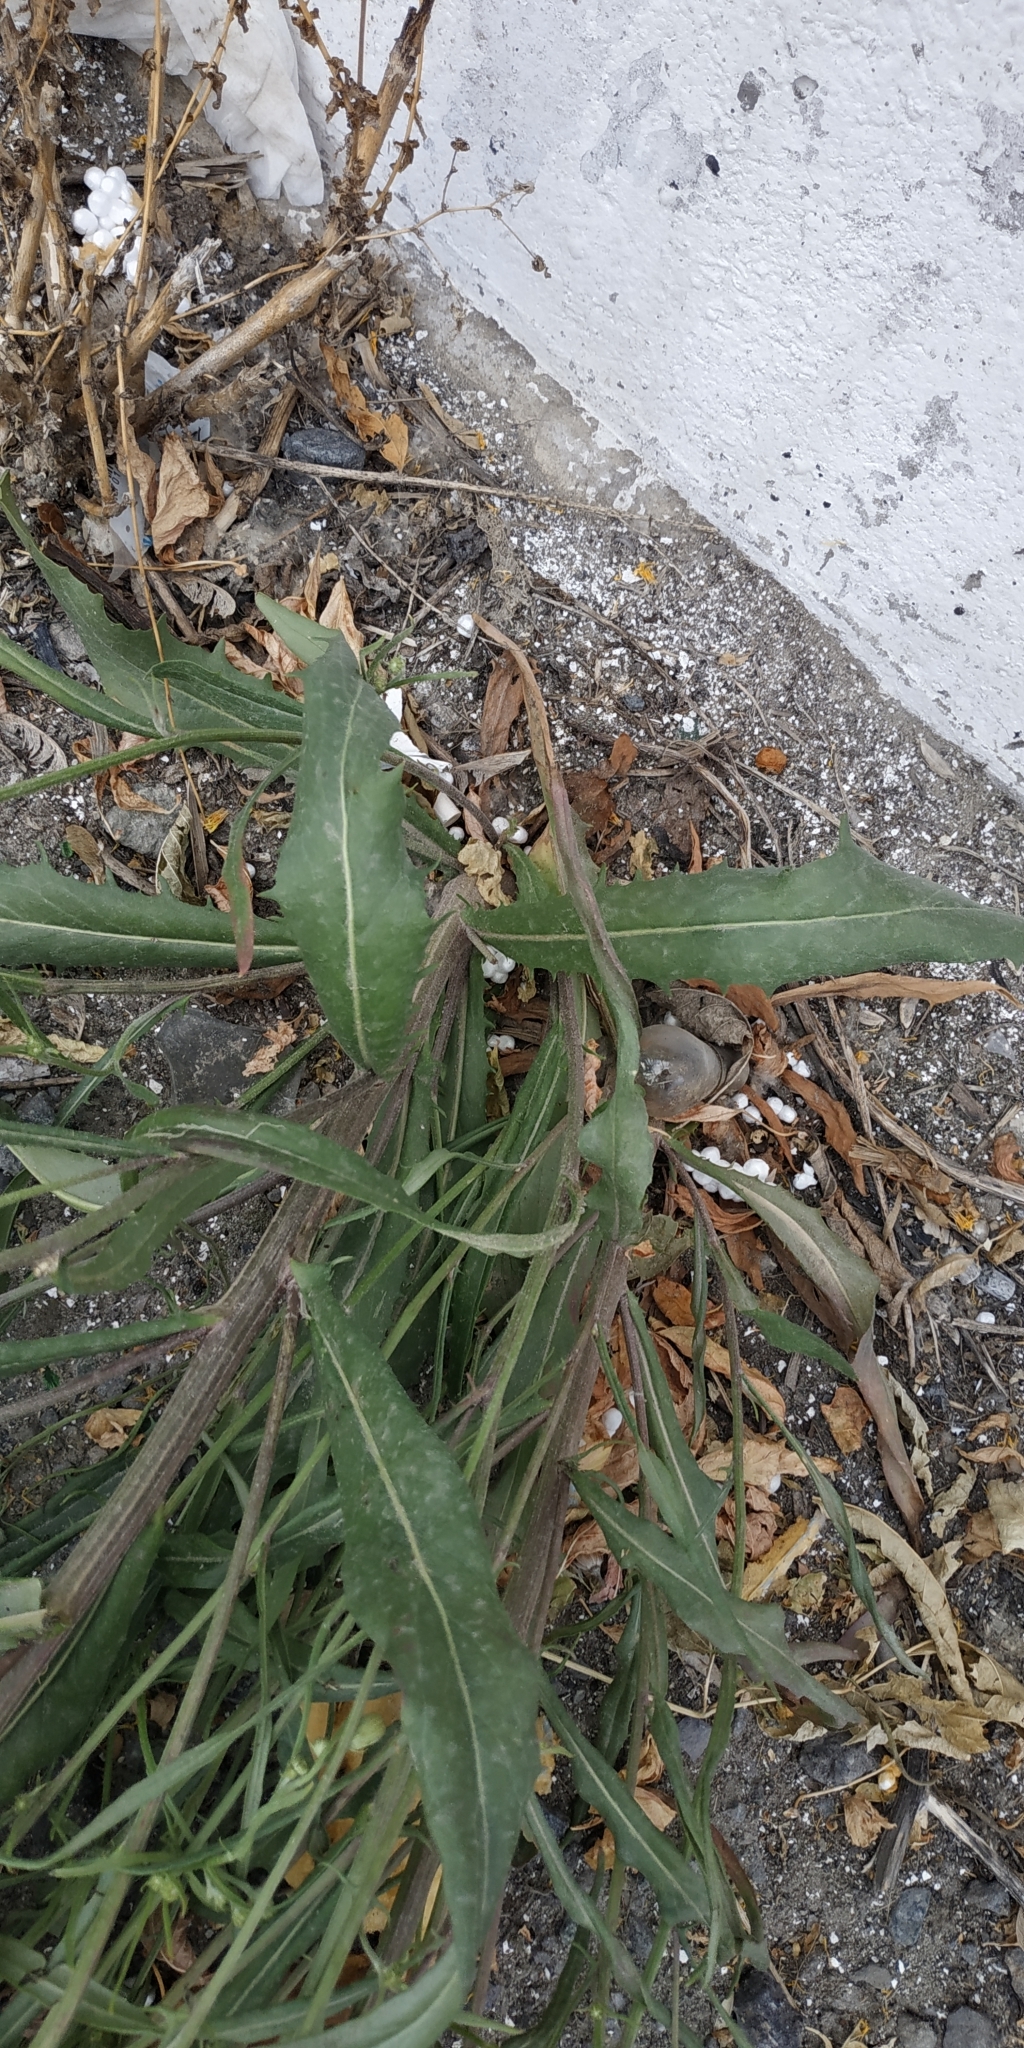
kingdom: Plantae
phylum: Tracheophyta
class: Magnoliopsida
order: Asterales
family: Asteraceae
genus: Crepis
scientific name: Crepis tectorum
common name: Narrow-leaved hawk's-beard
